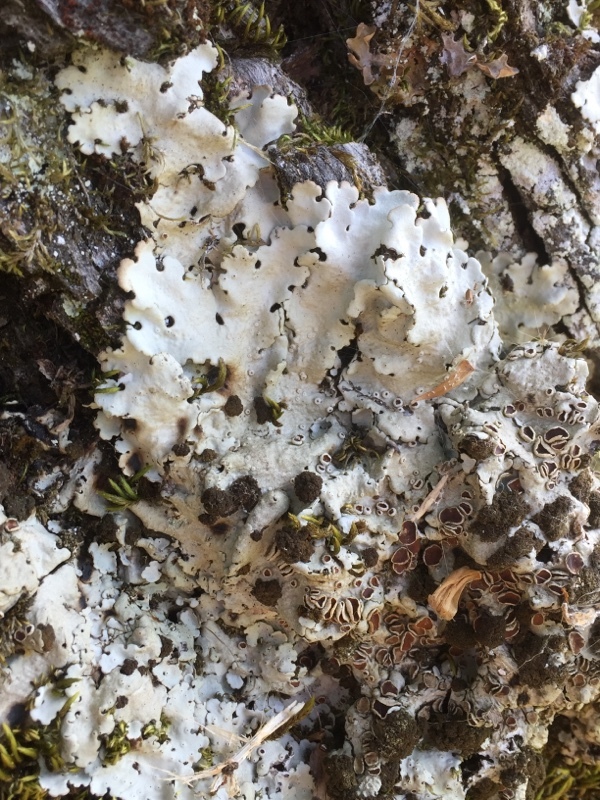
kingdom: Fungi
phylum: Ascomycota
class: Lecanoromycetes
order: Peltigerales
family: Lobariaceae
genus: Ricasolia
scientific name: Ricasolia amplissima
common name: Giant candlewax lichen
